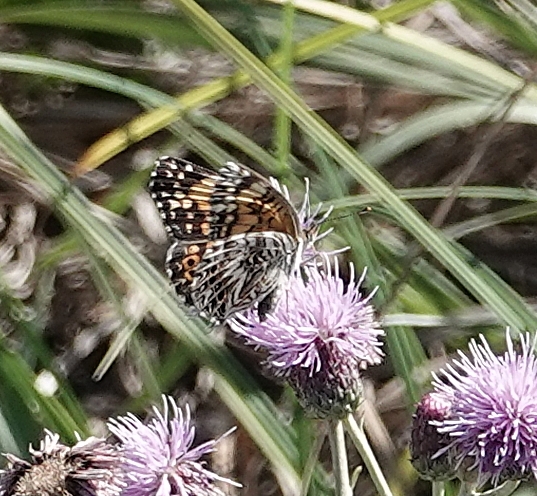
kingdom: Animalia
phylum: Arthropoda
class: Insecta
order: Lepidoptera
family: Nymphalidae
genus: Chlosyne
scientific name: Chlosyne gorgone
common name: Gorgone checkerspot
